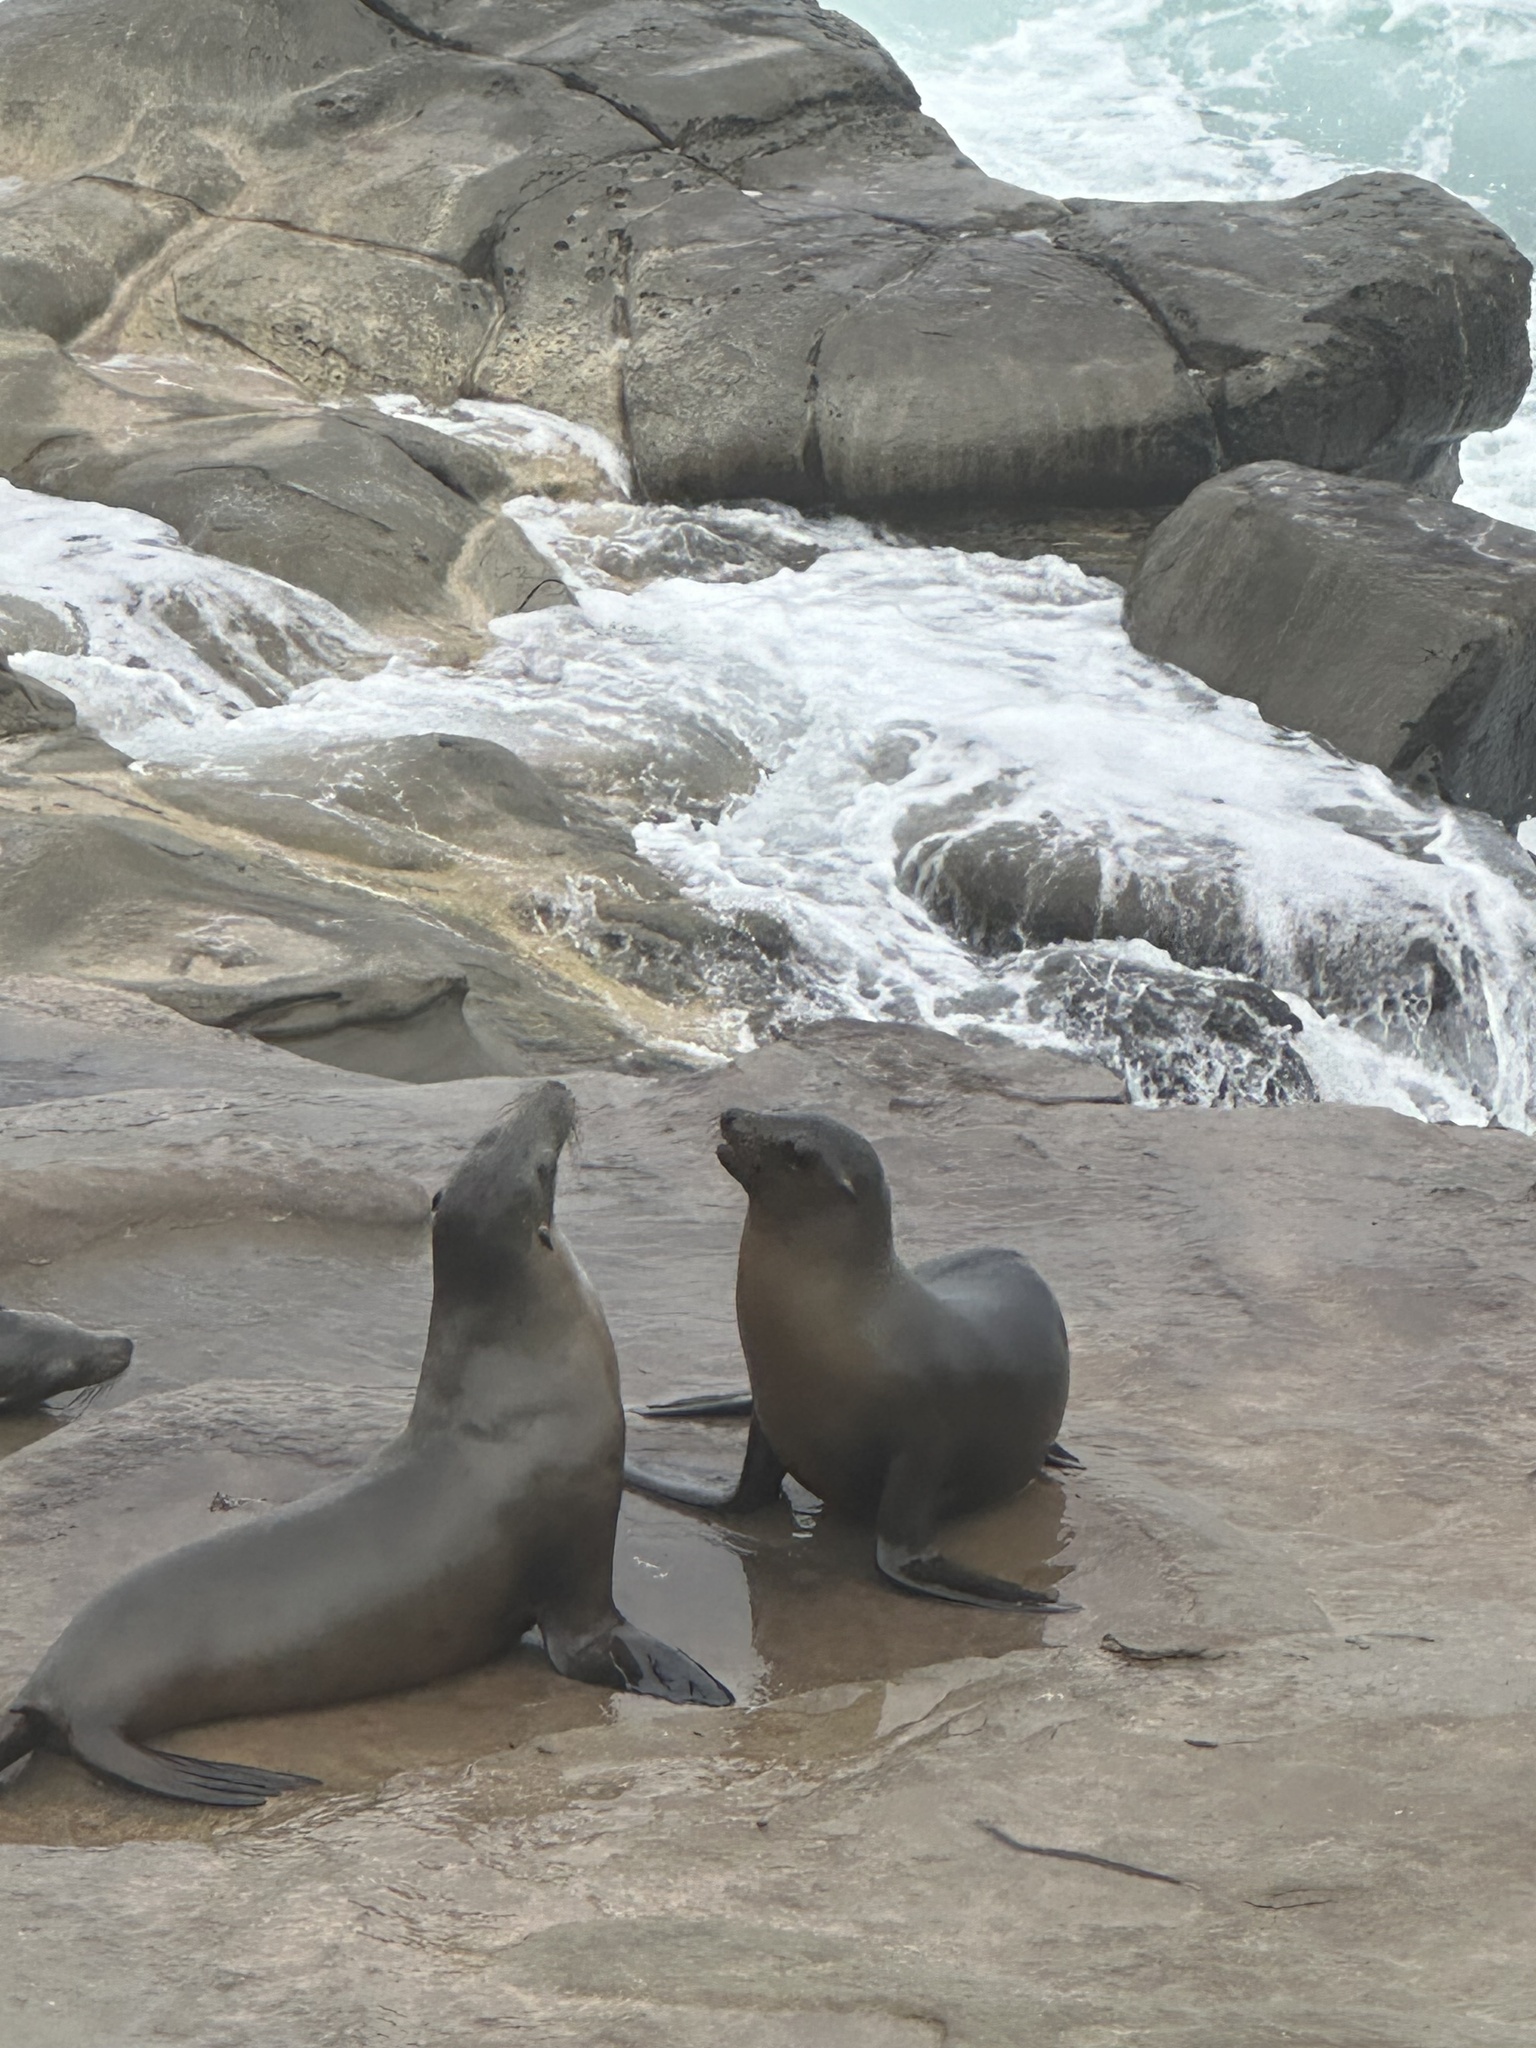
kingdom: Animalia
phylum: Chordata
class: Mammalia
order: Carnivora
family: Otariidae
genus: Zalophus
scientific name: Zalophus californianus
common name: California sea lion
